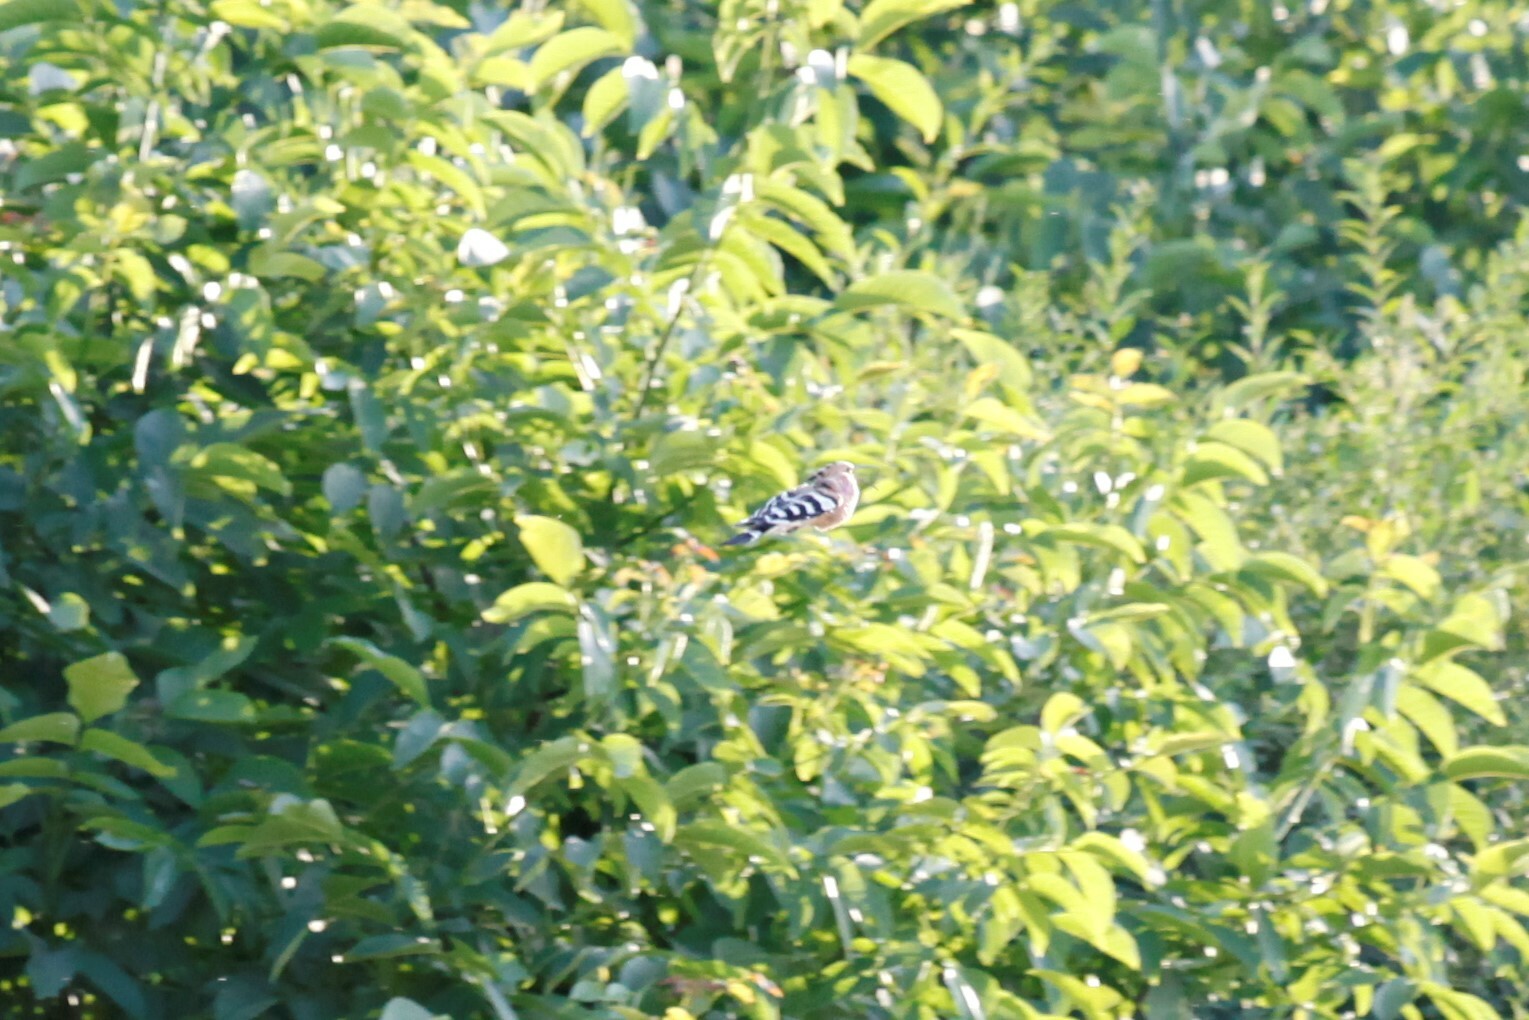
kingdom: Animalia
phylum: Chordata
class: Aves
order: Bucerotiformes
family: Upupidae
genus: Upupa
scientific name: Upupa epops
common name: Eurasian hoopoe
